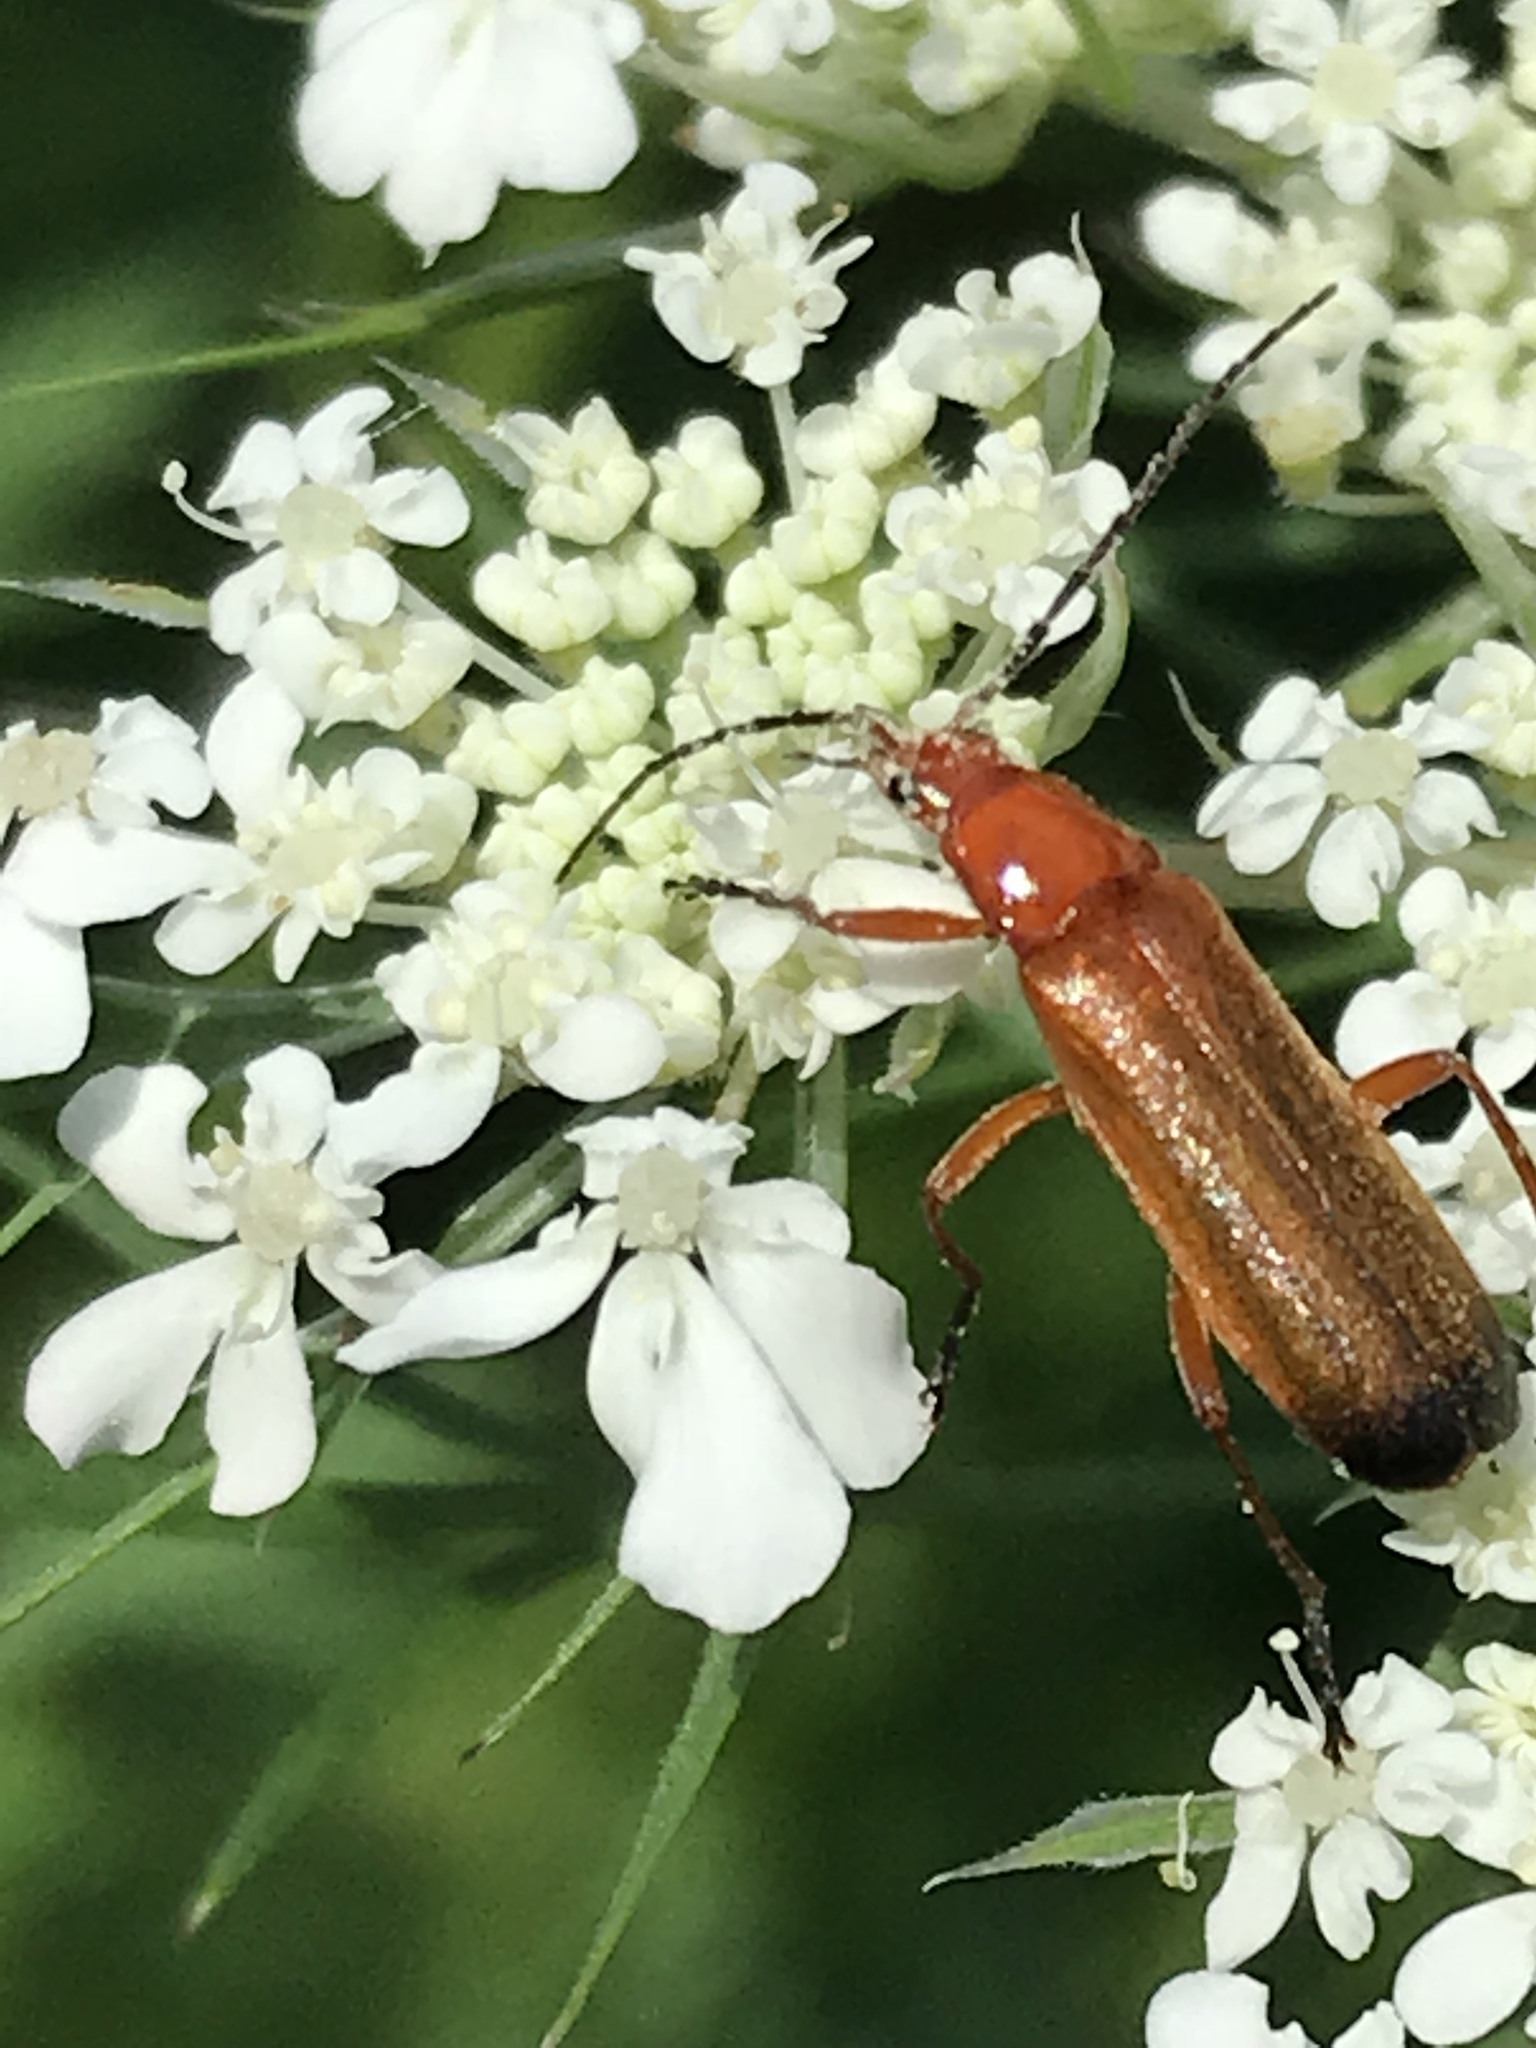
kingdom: Animalia
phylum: Arthropoda
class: Insecta
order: Coleoptera
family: Cantharidae
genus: Rhagonycha
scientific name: Rhagonycha fulva
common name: Common red soldier beetle
